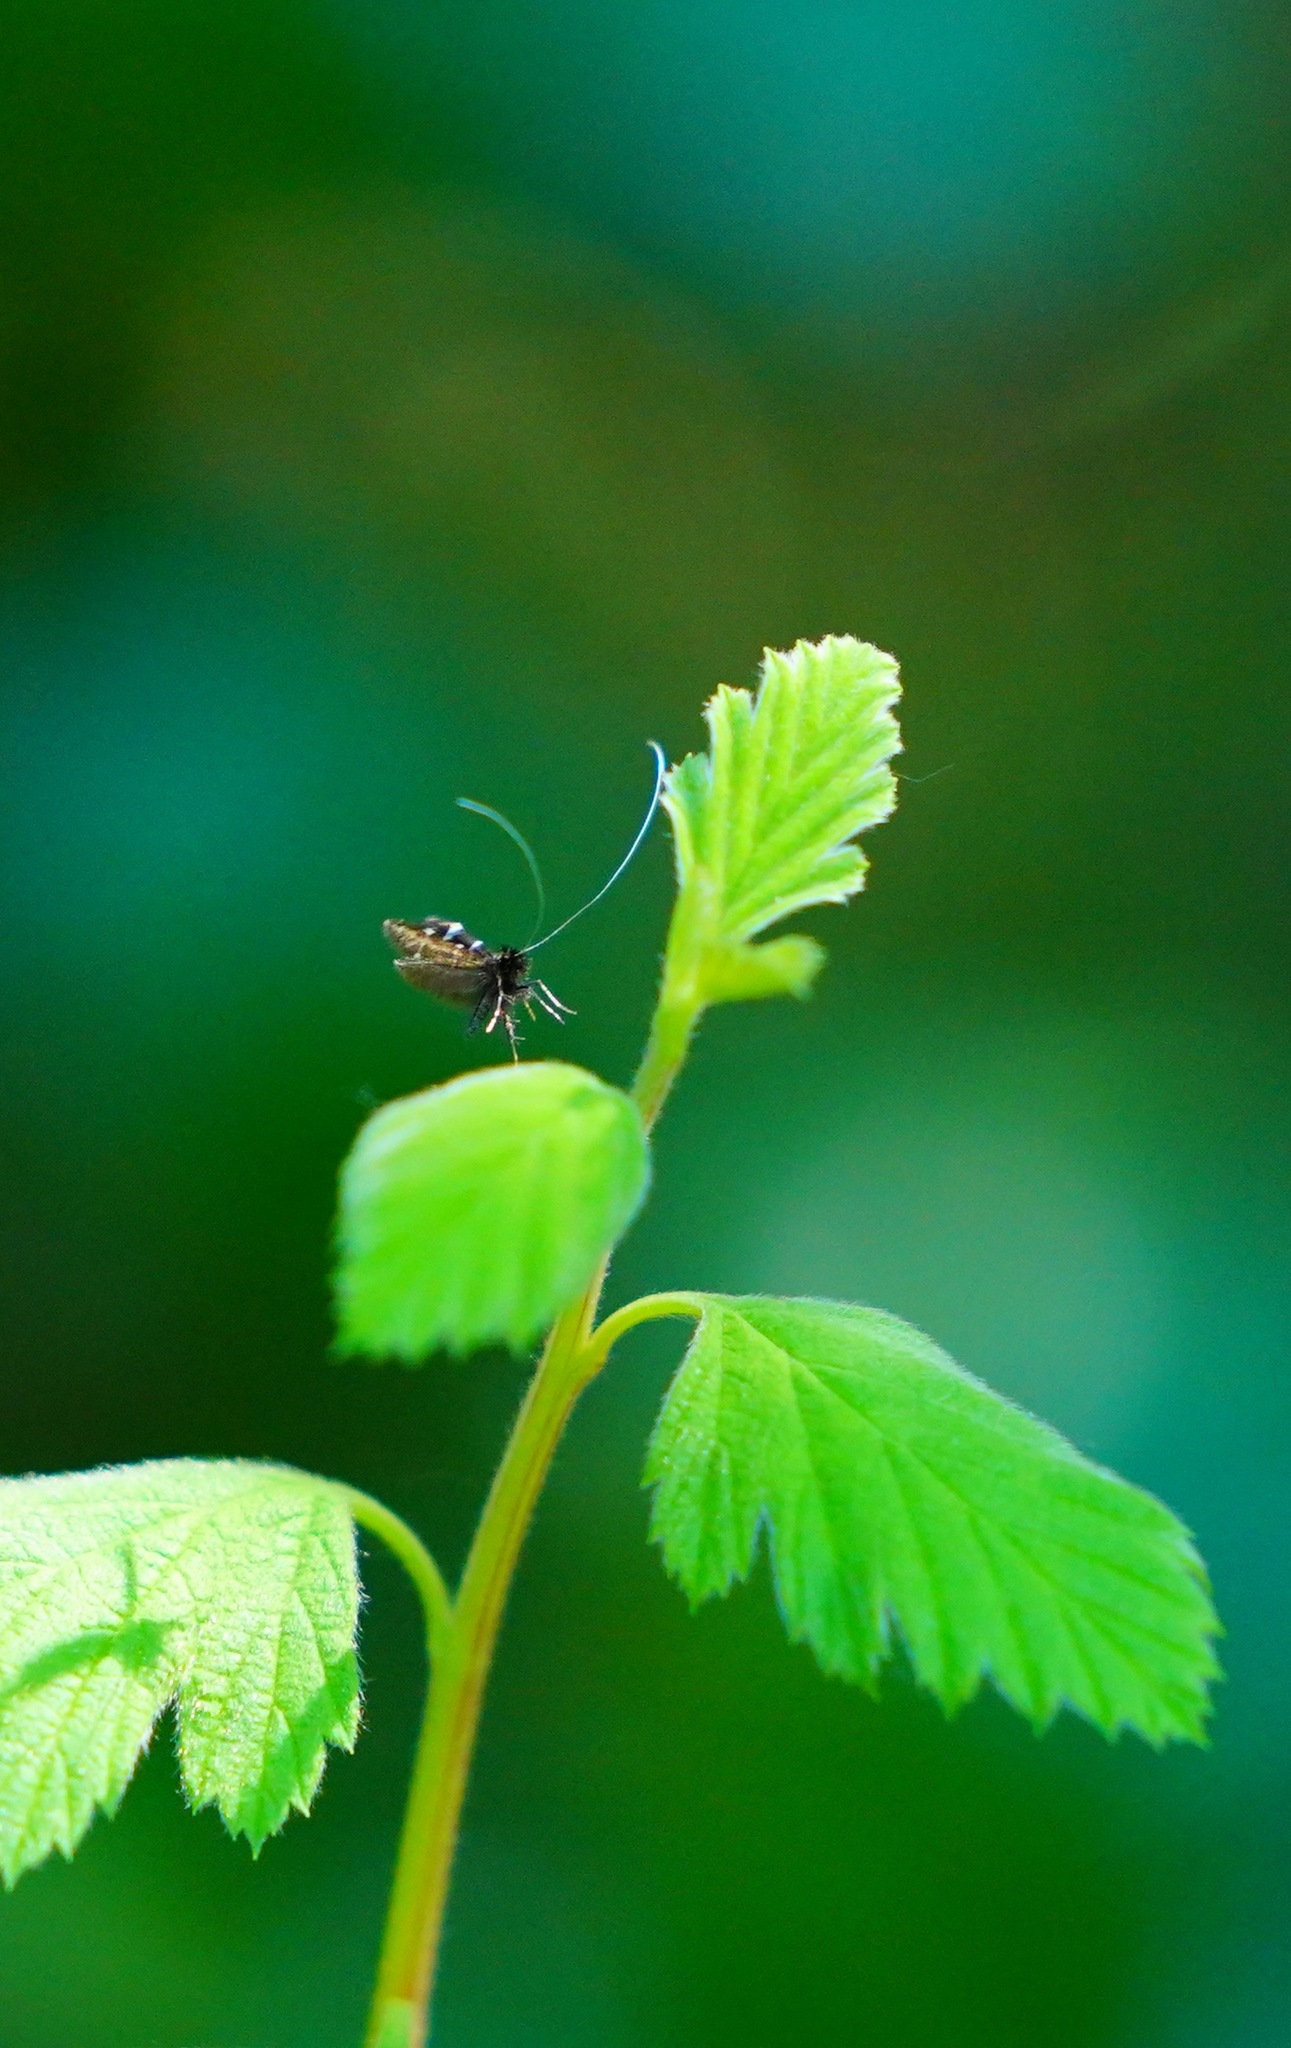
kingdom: Animalia
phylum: Arthropoda
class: Insecta
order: Lepidoptera
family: Adelidae
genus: Adela
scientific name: Adela septentrionella
